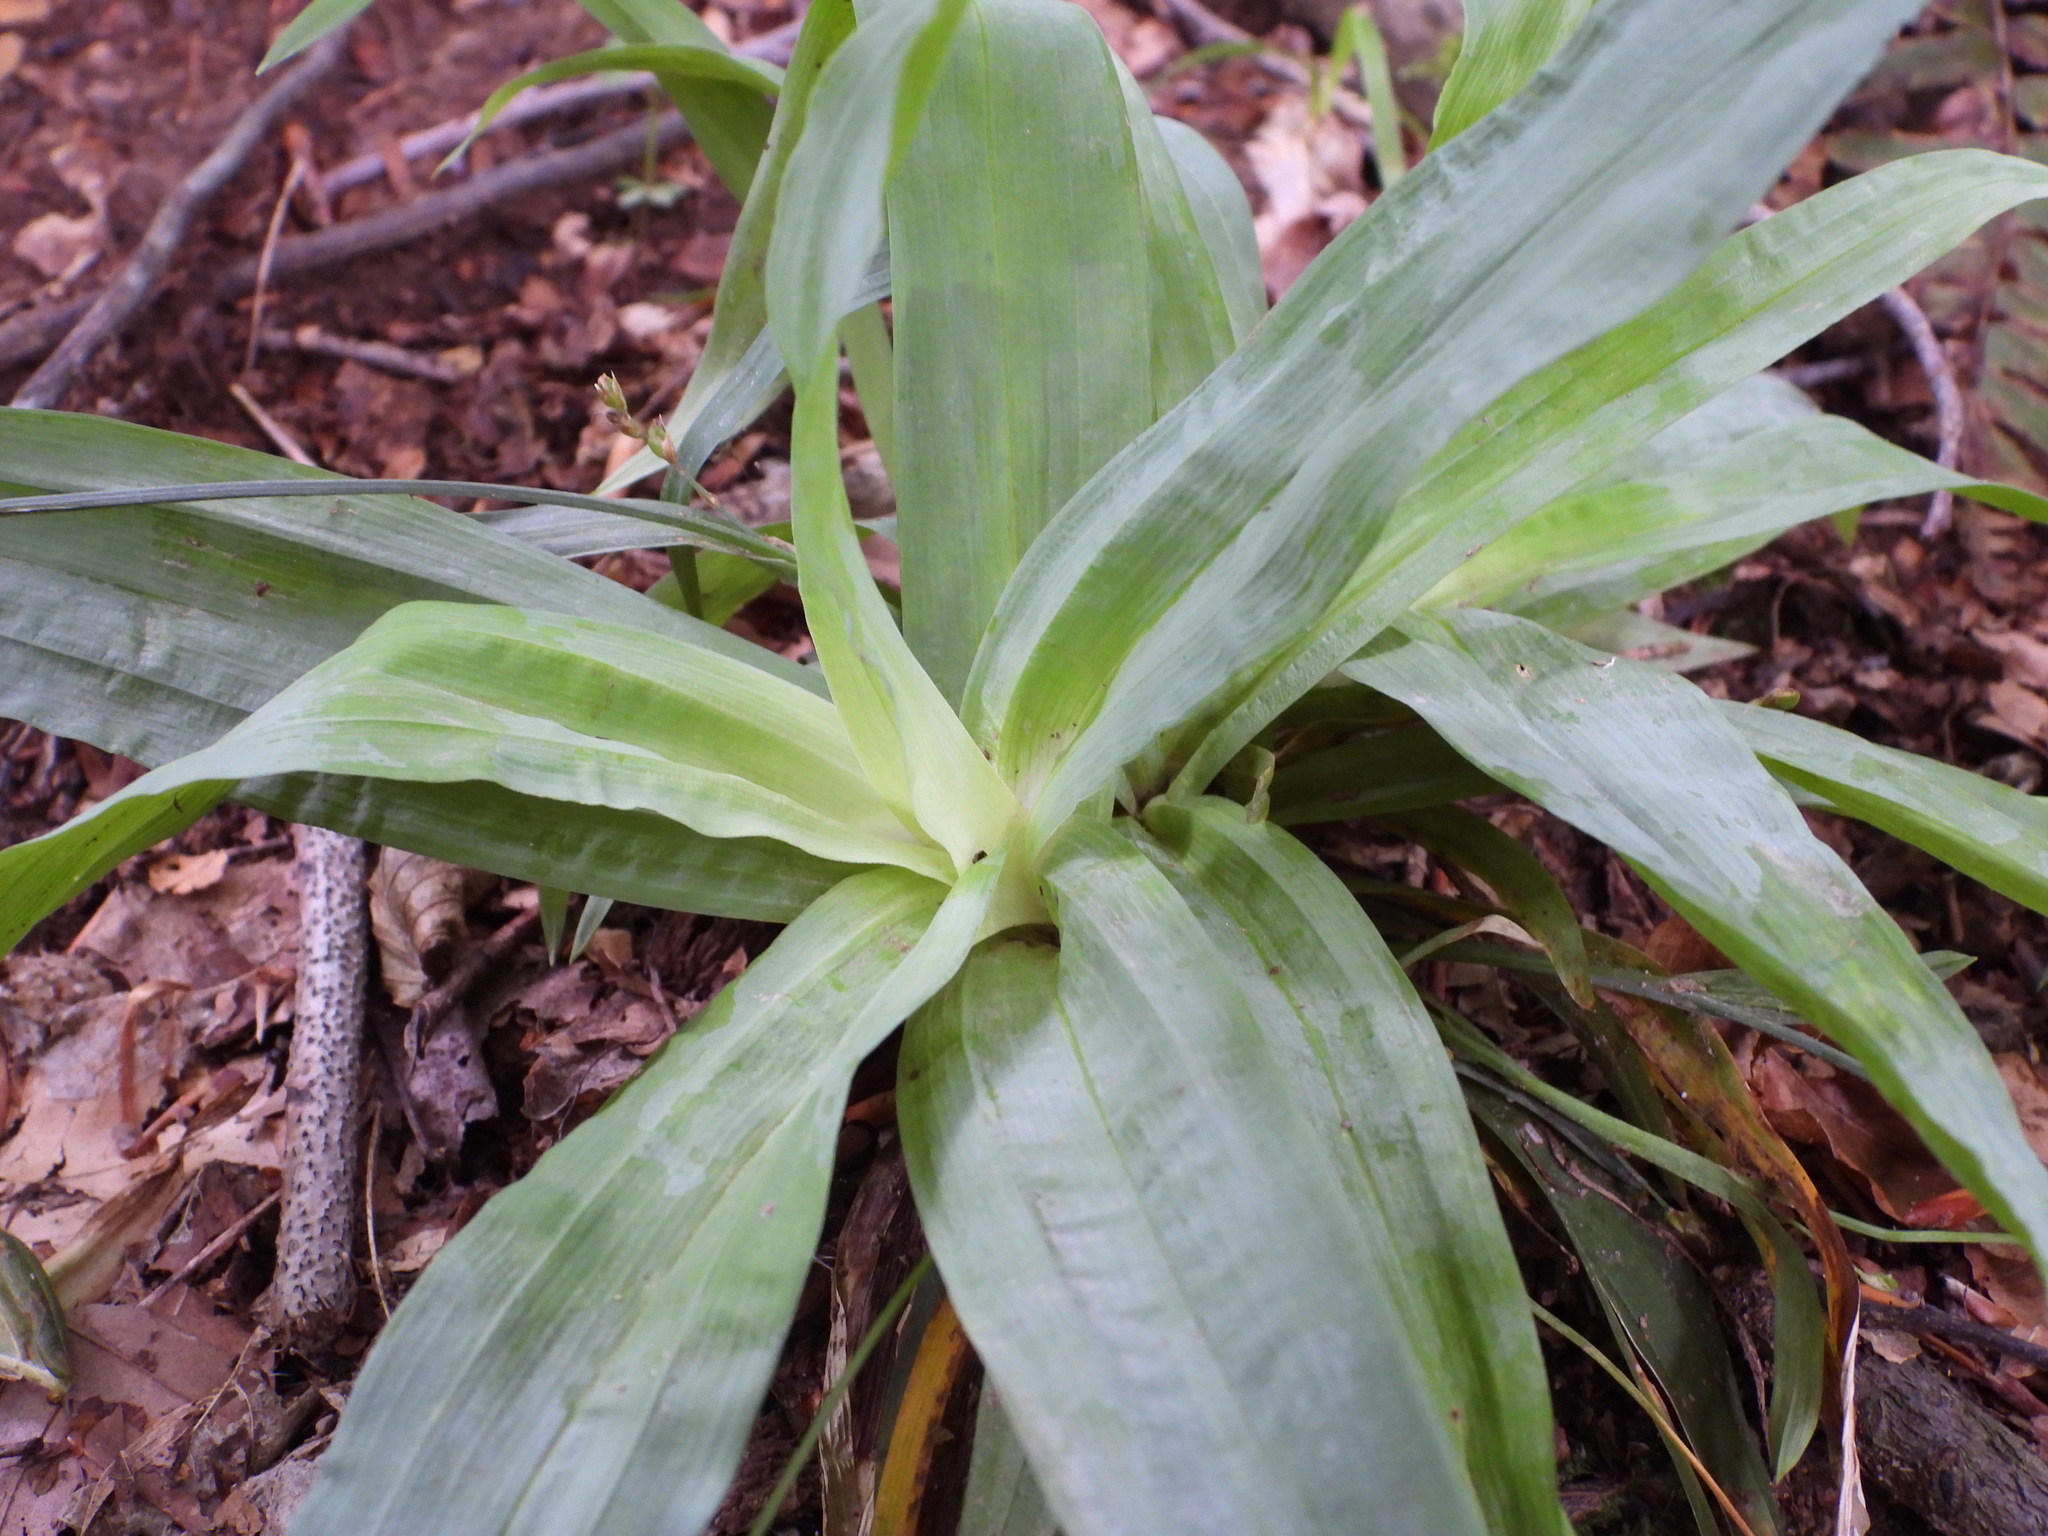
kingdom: Plantae
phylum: Tracheophyta
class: Liliopsida
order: Poales
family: Cyperaceae
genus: Carex
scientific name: Carex platyphylla
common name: Broad-leaved sedge
